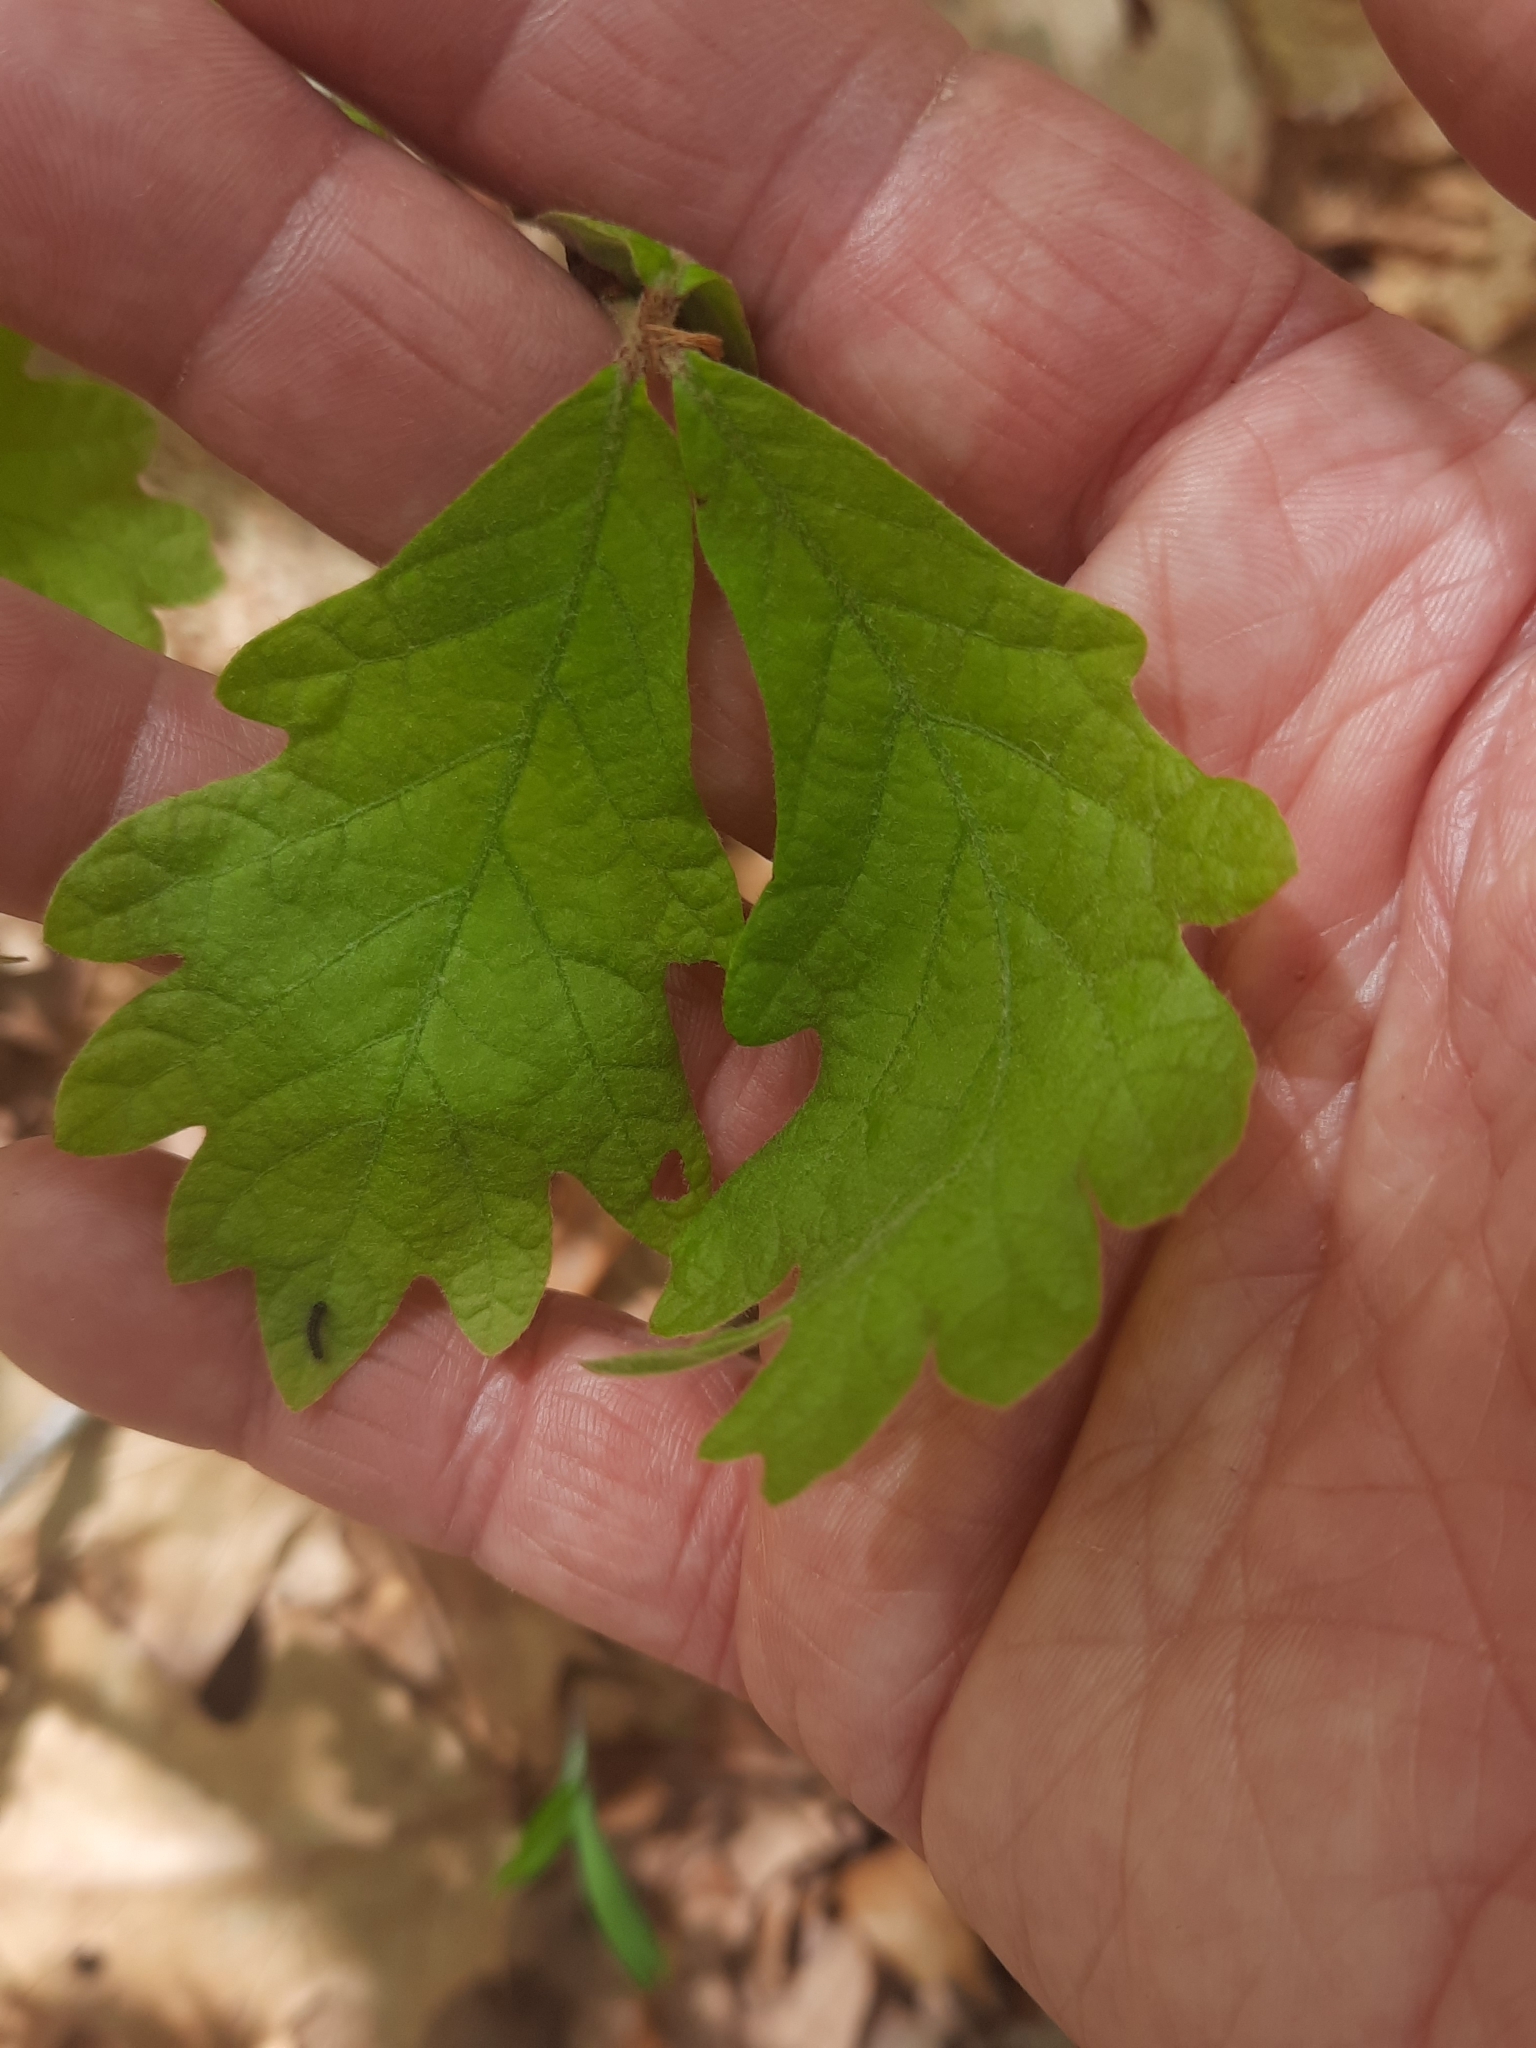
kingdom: Plantae
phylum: Tracheophyta
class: Magnoliopsida
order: Fagales
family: Fagaceae
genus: Quercus
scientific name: Quercus alba
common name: White oak
